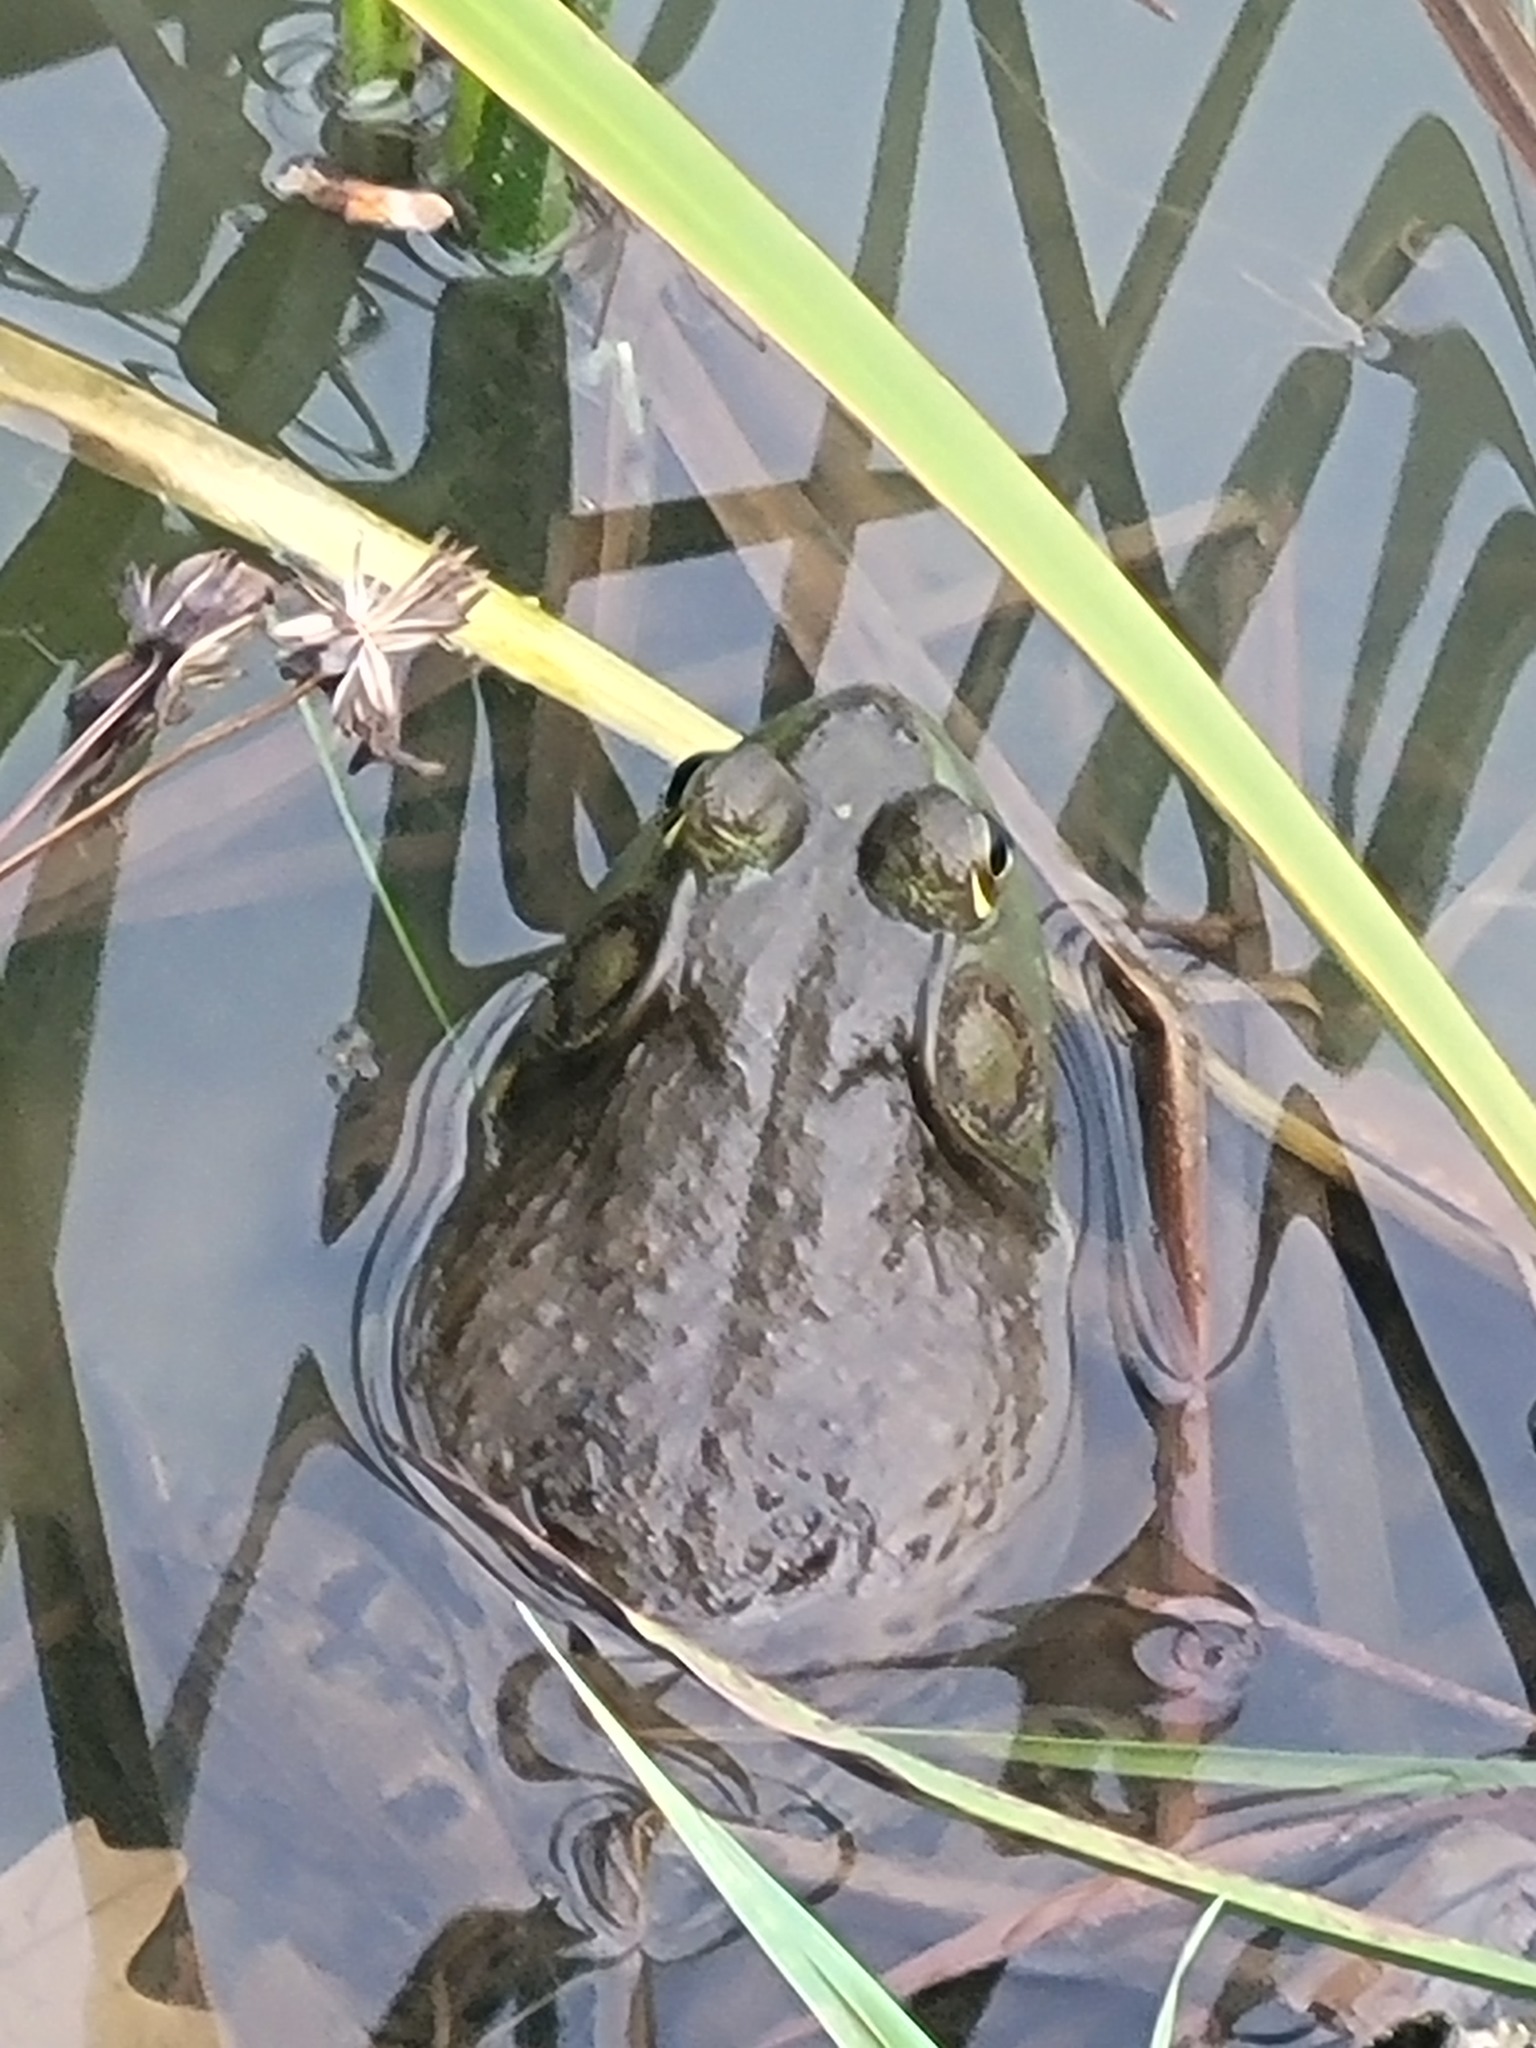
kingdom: Animalia
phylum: Chordata
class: Amphibia
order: Anura
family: Ranidae
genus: Lithobates
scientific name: Lithobates catesbeianus
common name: American bullfrog
